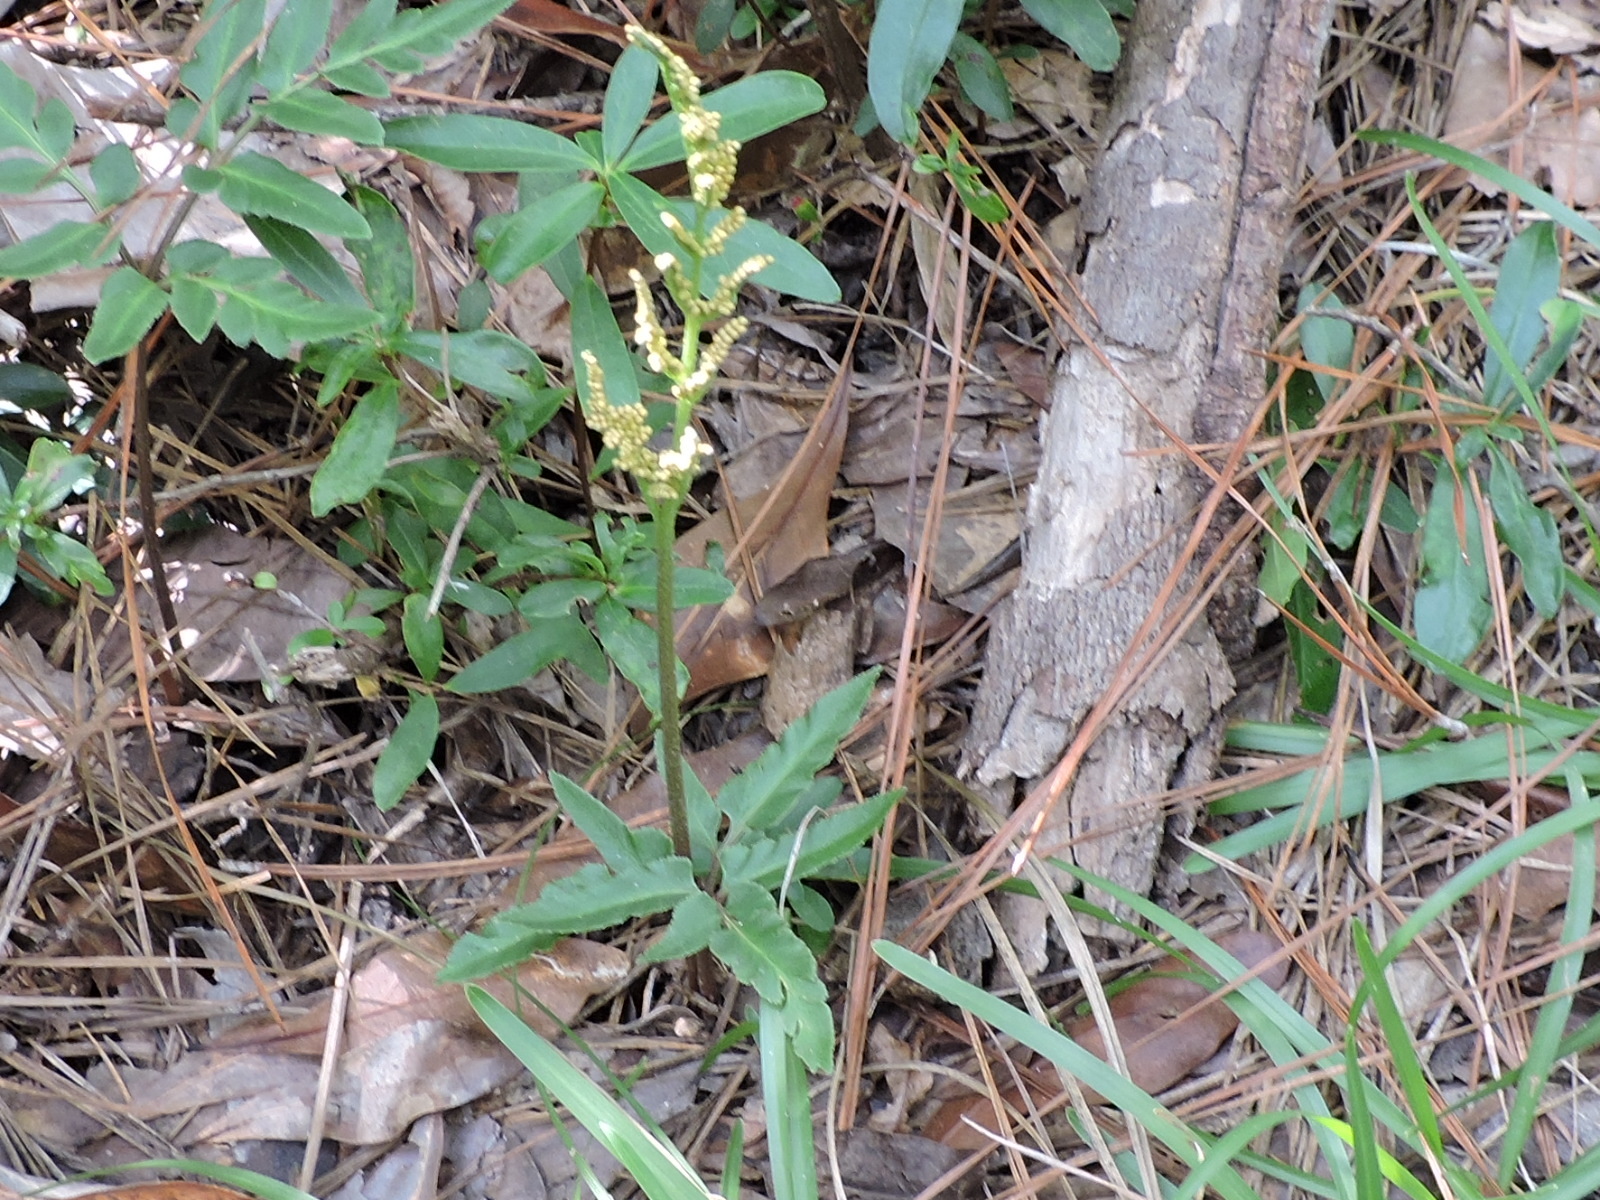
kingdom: Plantae
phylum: Tracheophyta
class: Polypodiopsida
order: Ophioglossales
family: Ophioglossaceae
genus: Sceptridium
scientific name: Sceptridium biternatum
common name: Sparse-lobed grapefern
